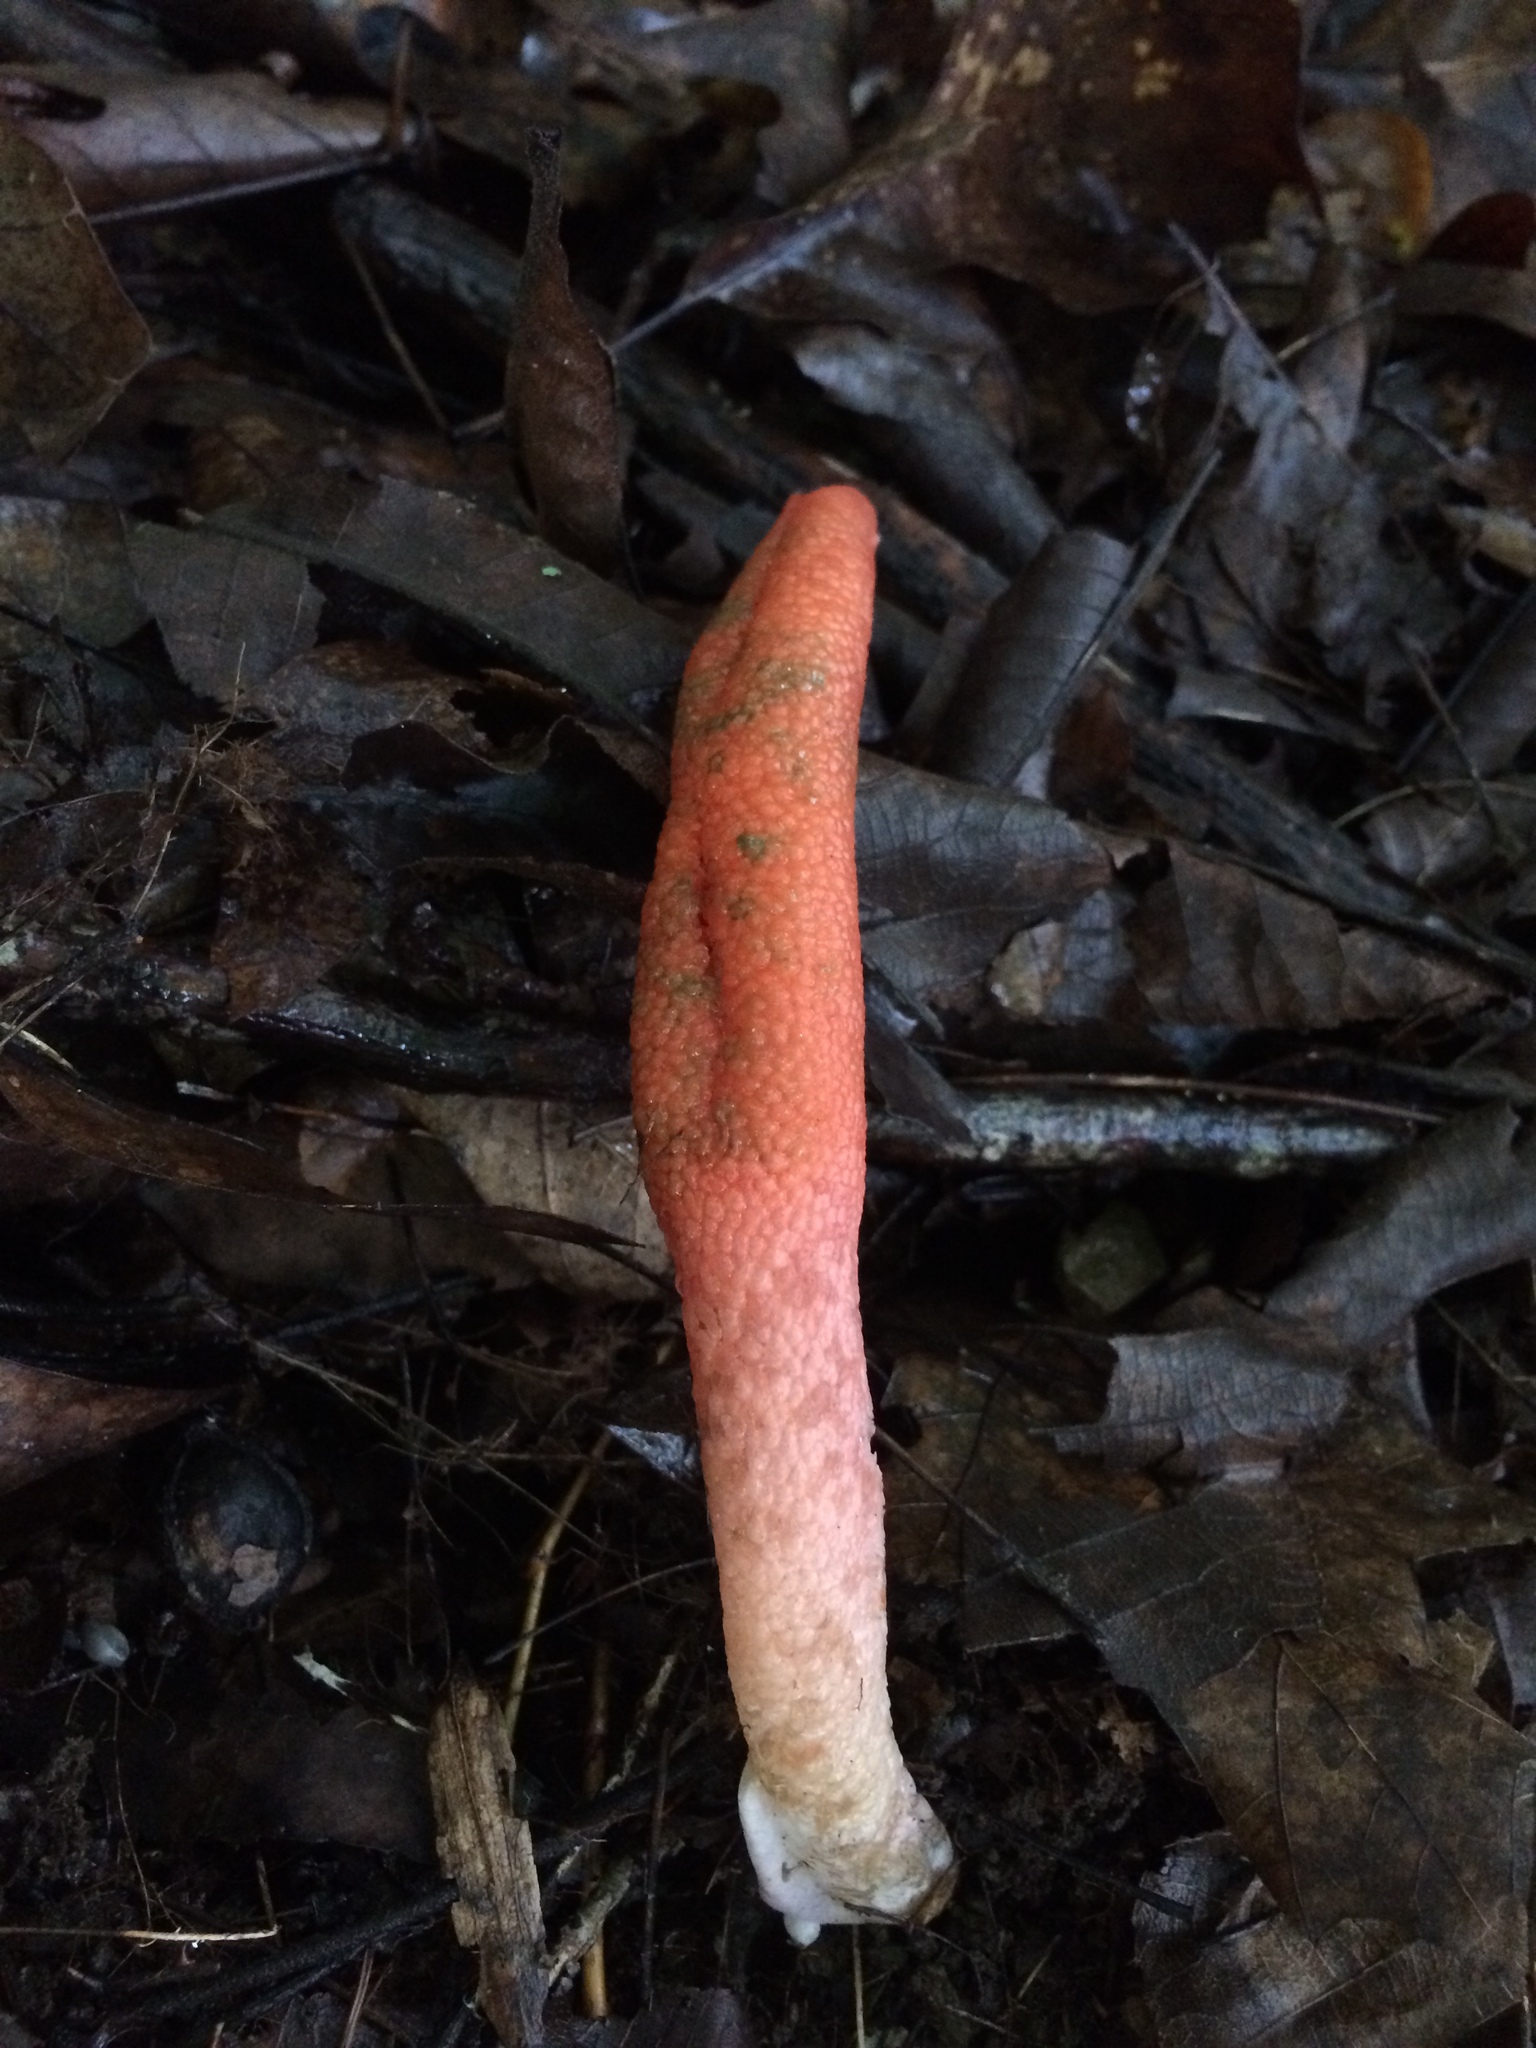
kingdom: Fungi
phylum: Basidiomycota
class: Agaricomycetes
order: Phallales
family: Phallaceae
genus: Mutinus
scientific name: Mutinus elegans
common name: Devil's dipstick
